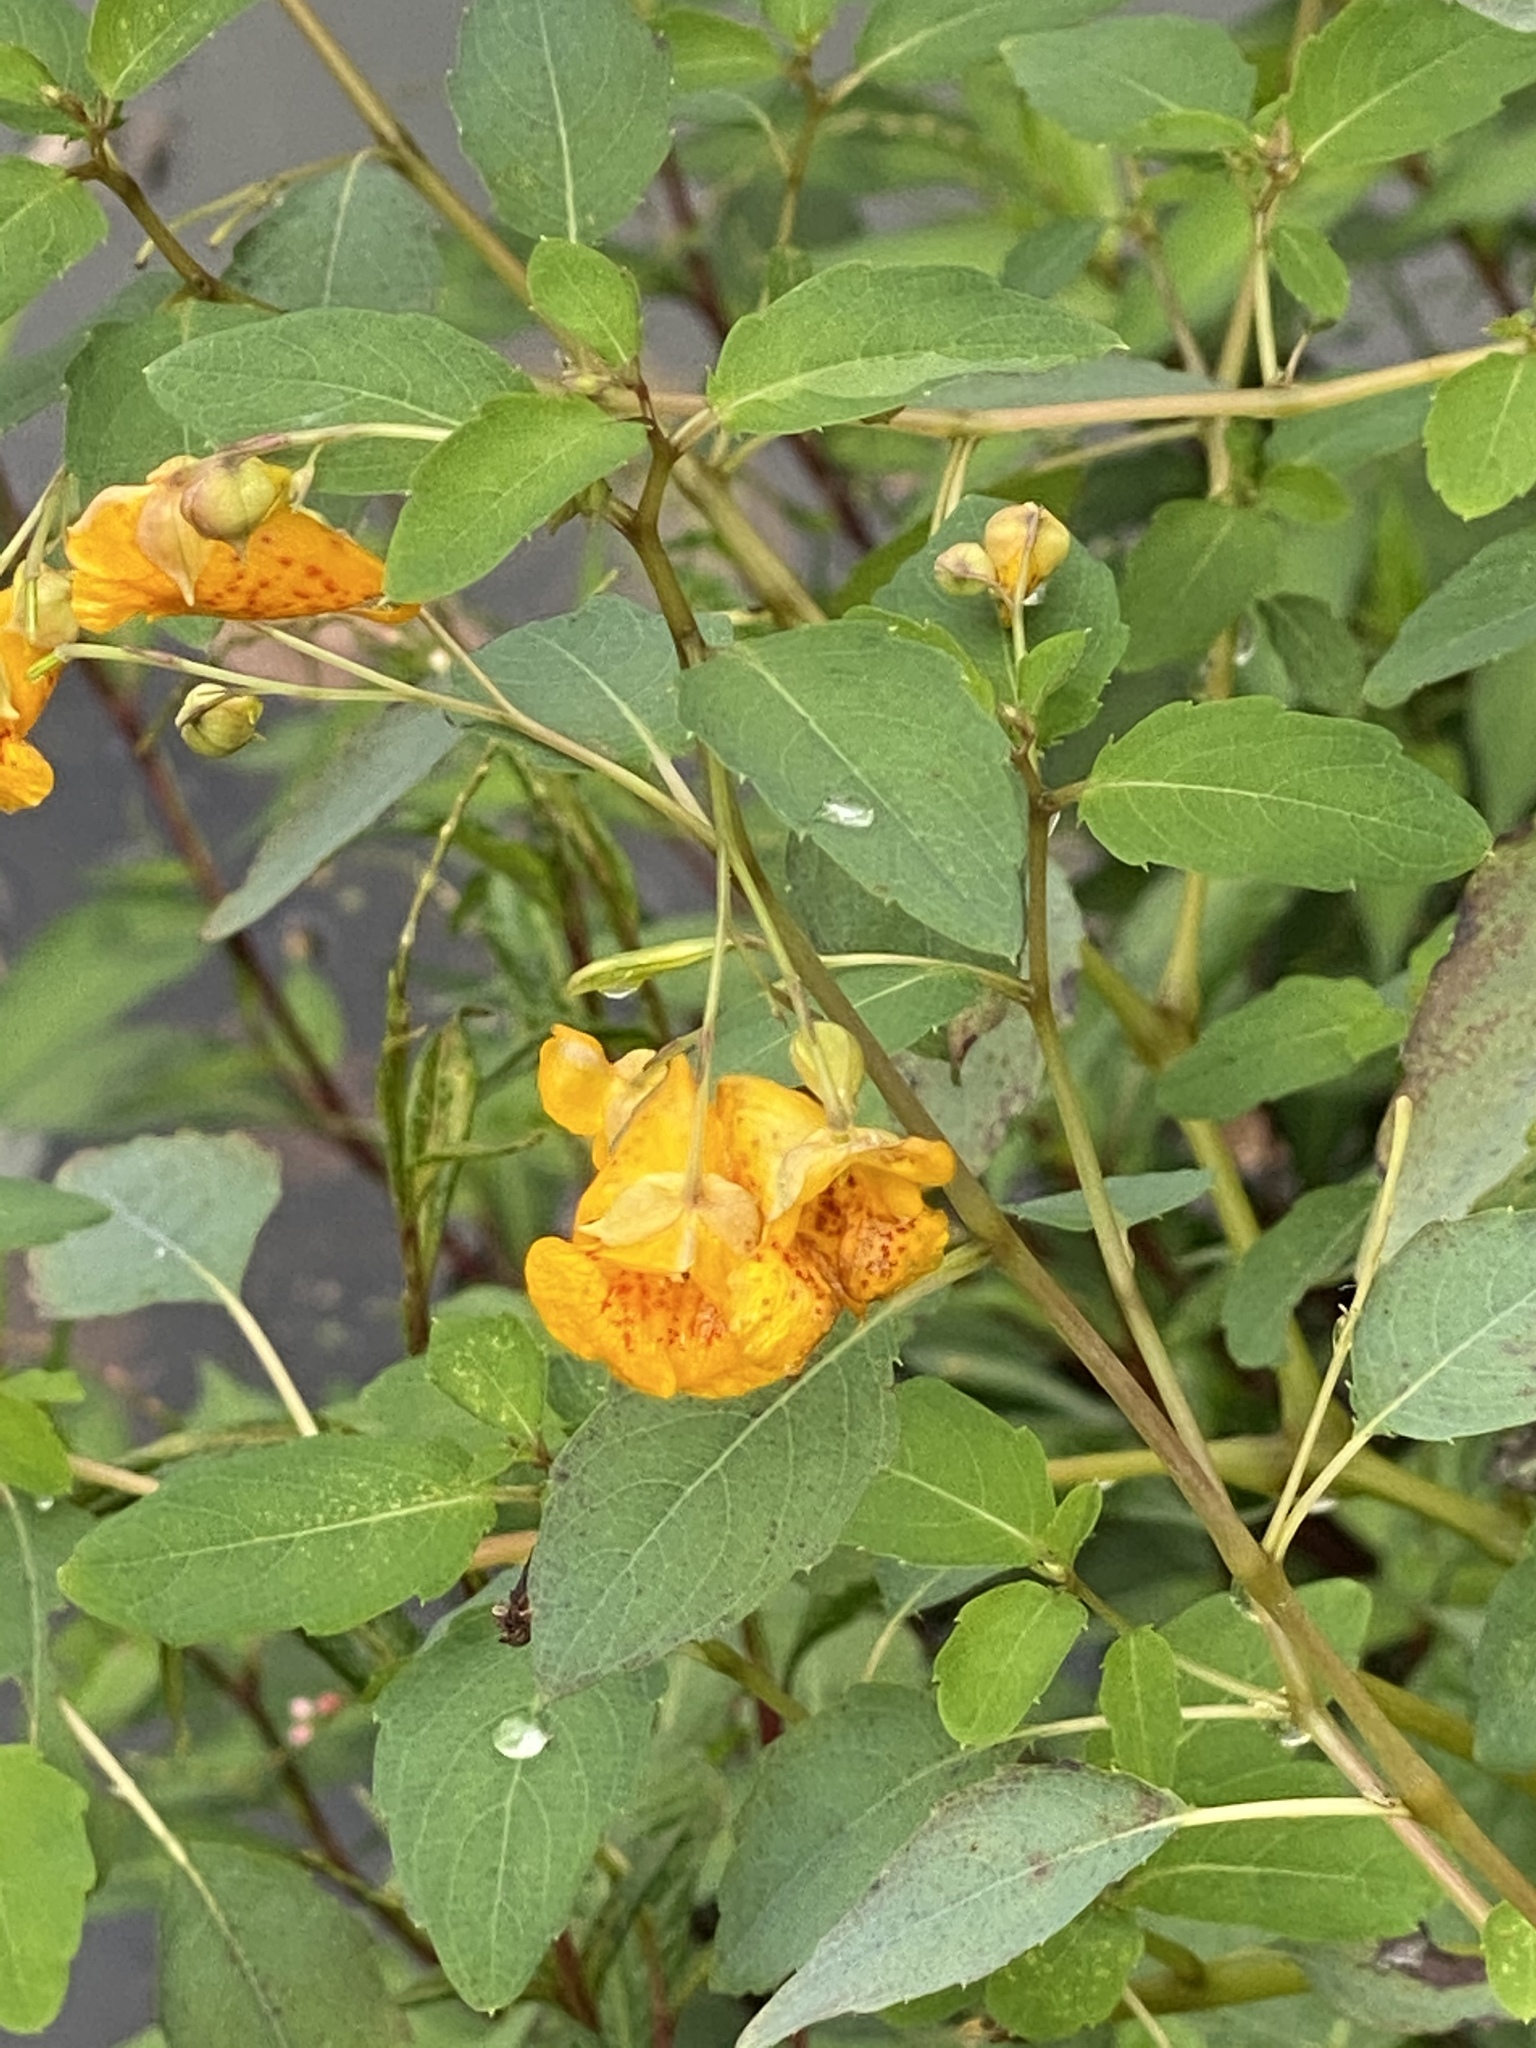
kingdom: Plantae
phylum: Tracheophyta
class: Magnoliopsida
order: Ericales
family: Balsaminaceae
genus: Impatiens
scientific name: Impatiens capensis
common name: Orange balsam
